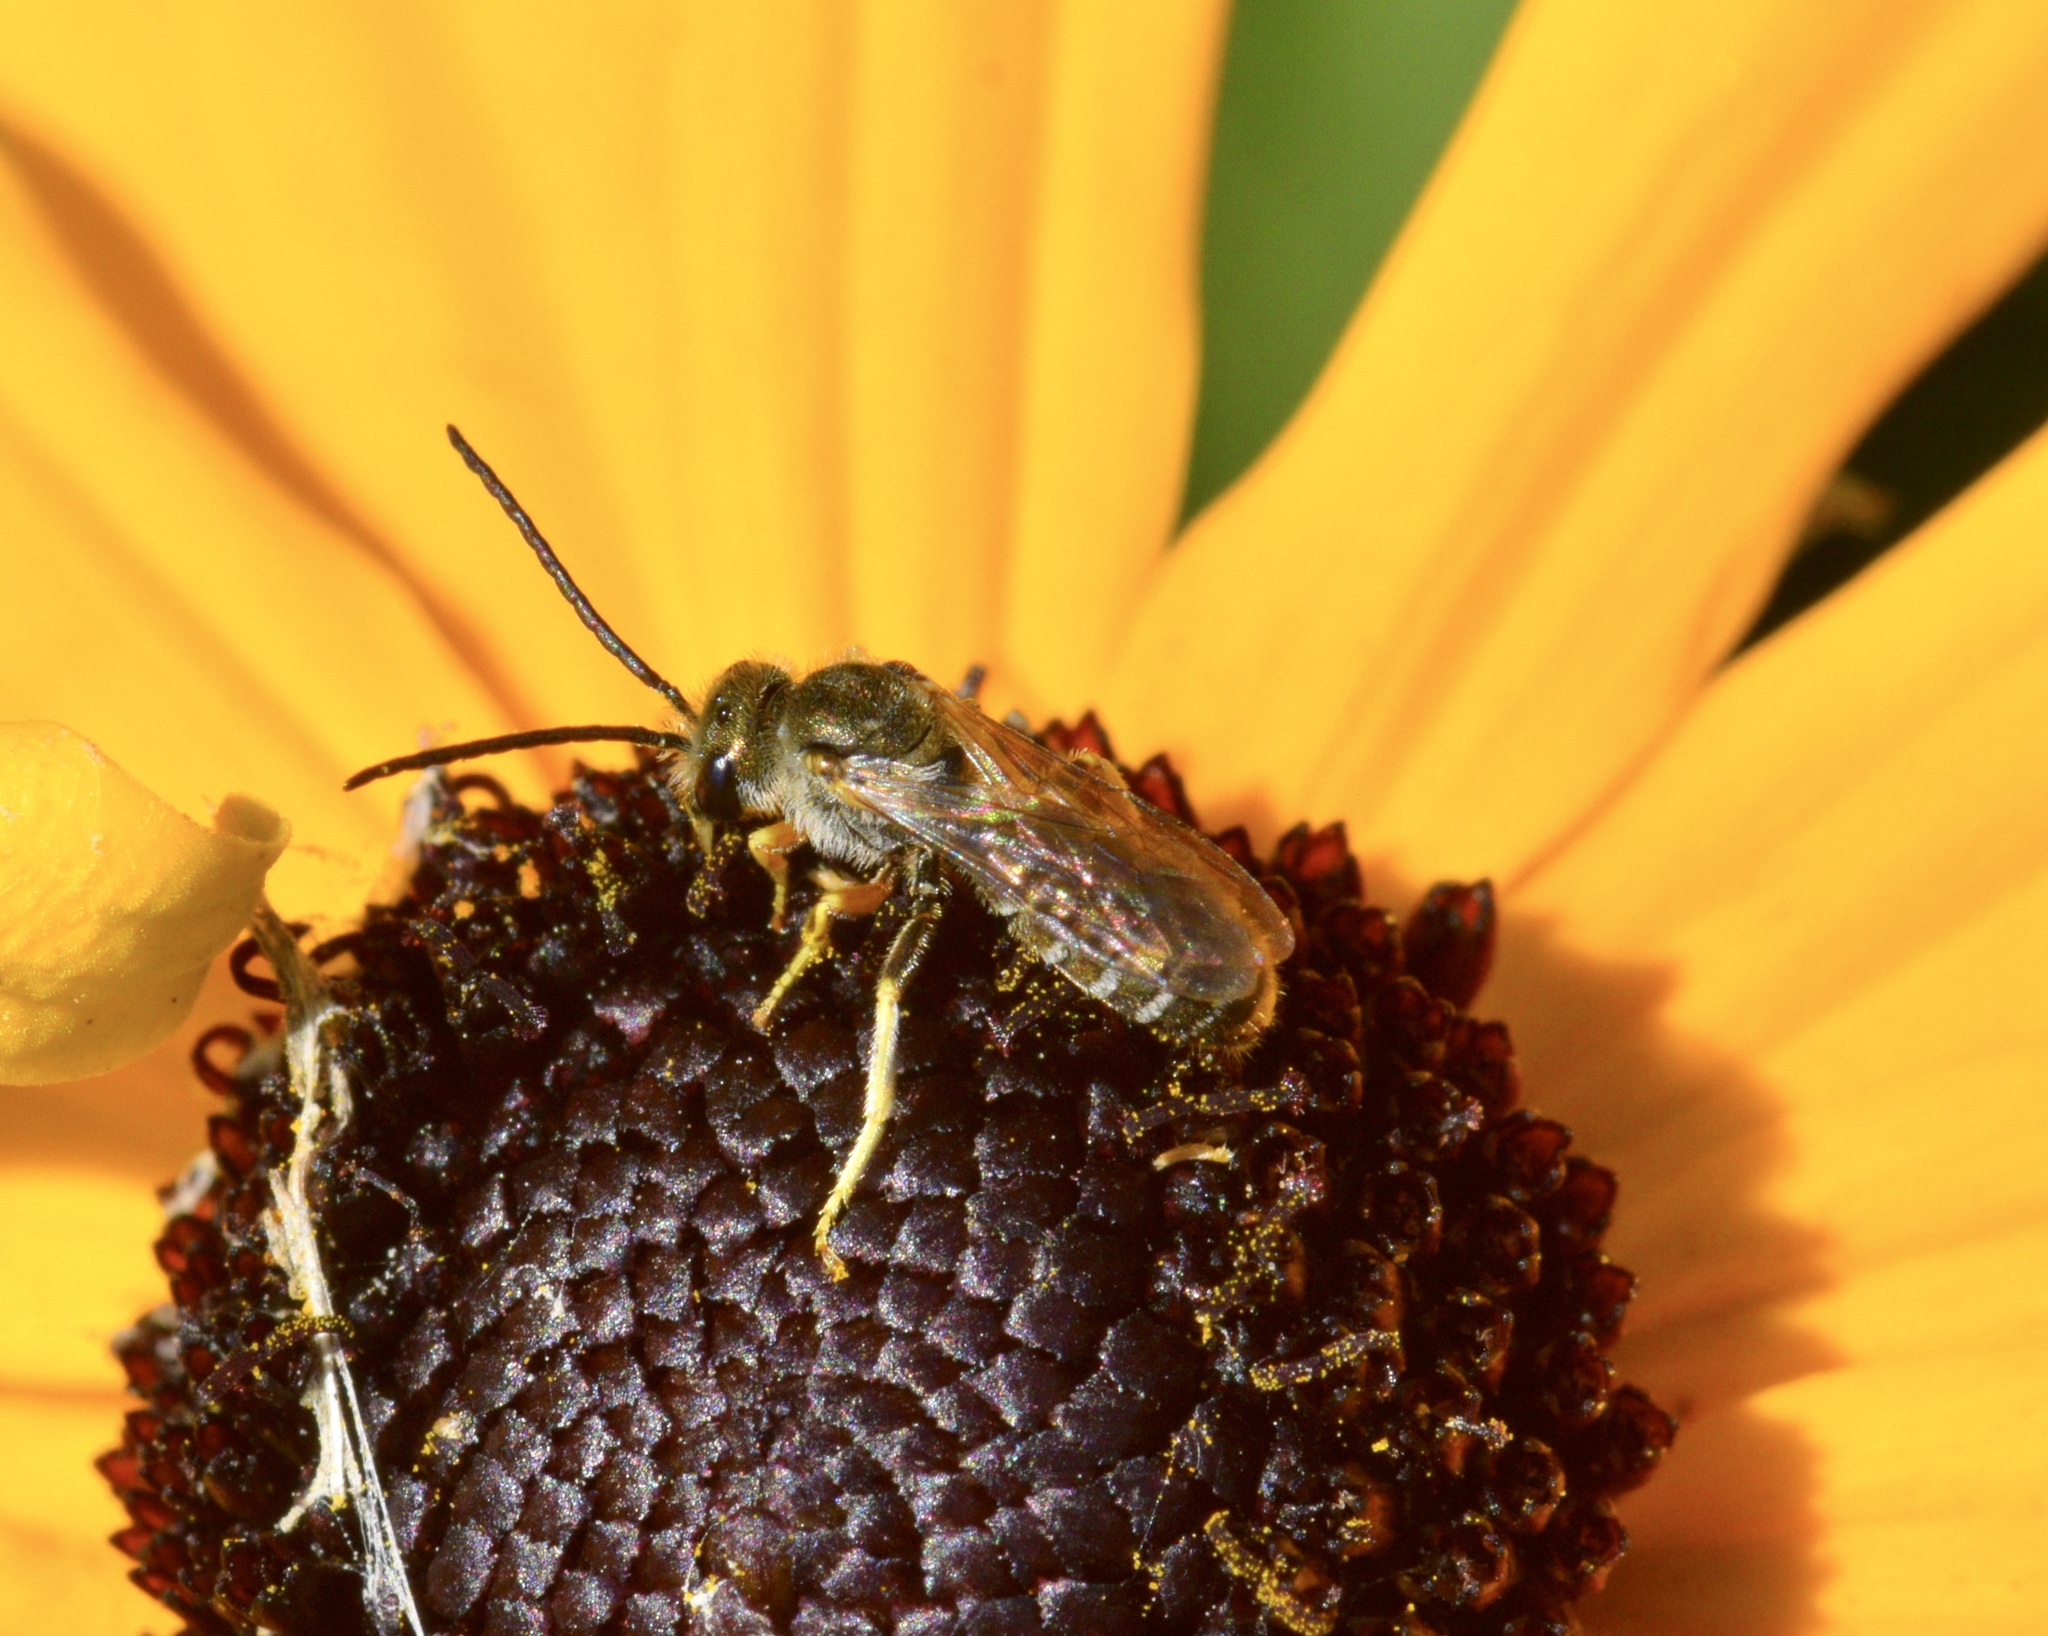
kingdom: Animalia
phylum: Arthropoda
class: Insecta
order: Hymenoptera
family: Halictidae
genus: Halictus
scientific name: Halictus confusus
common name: Southern bronze furrow bee
